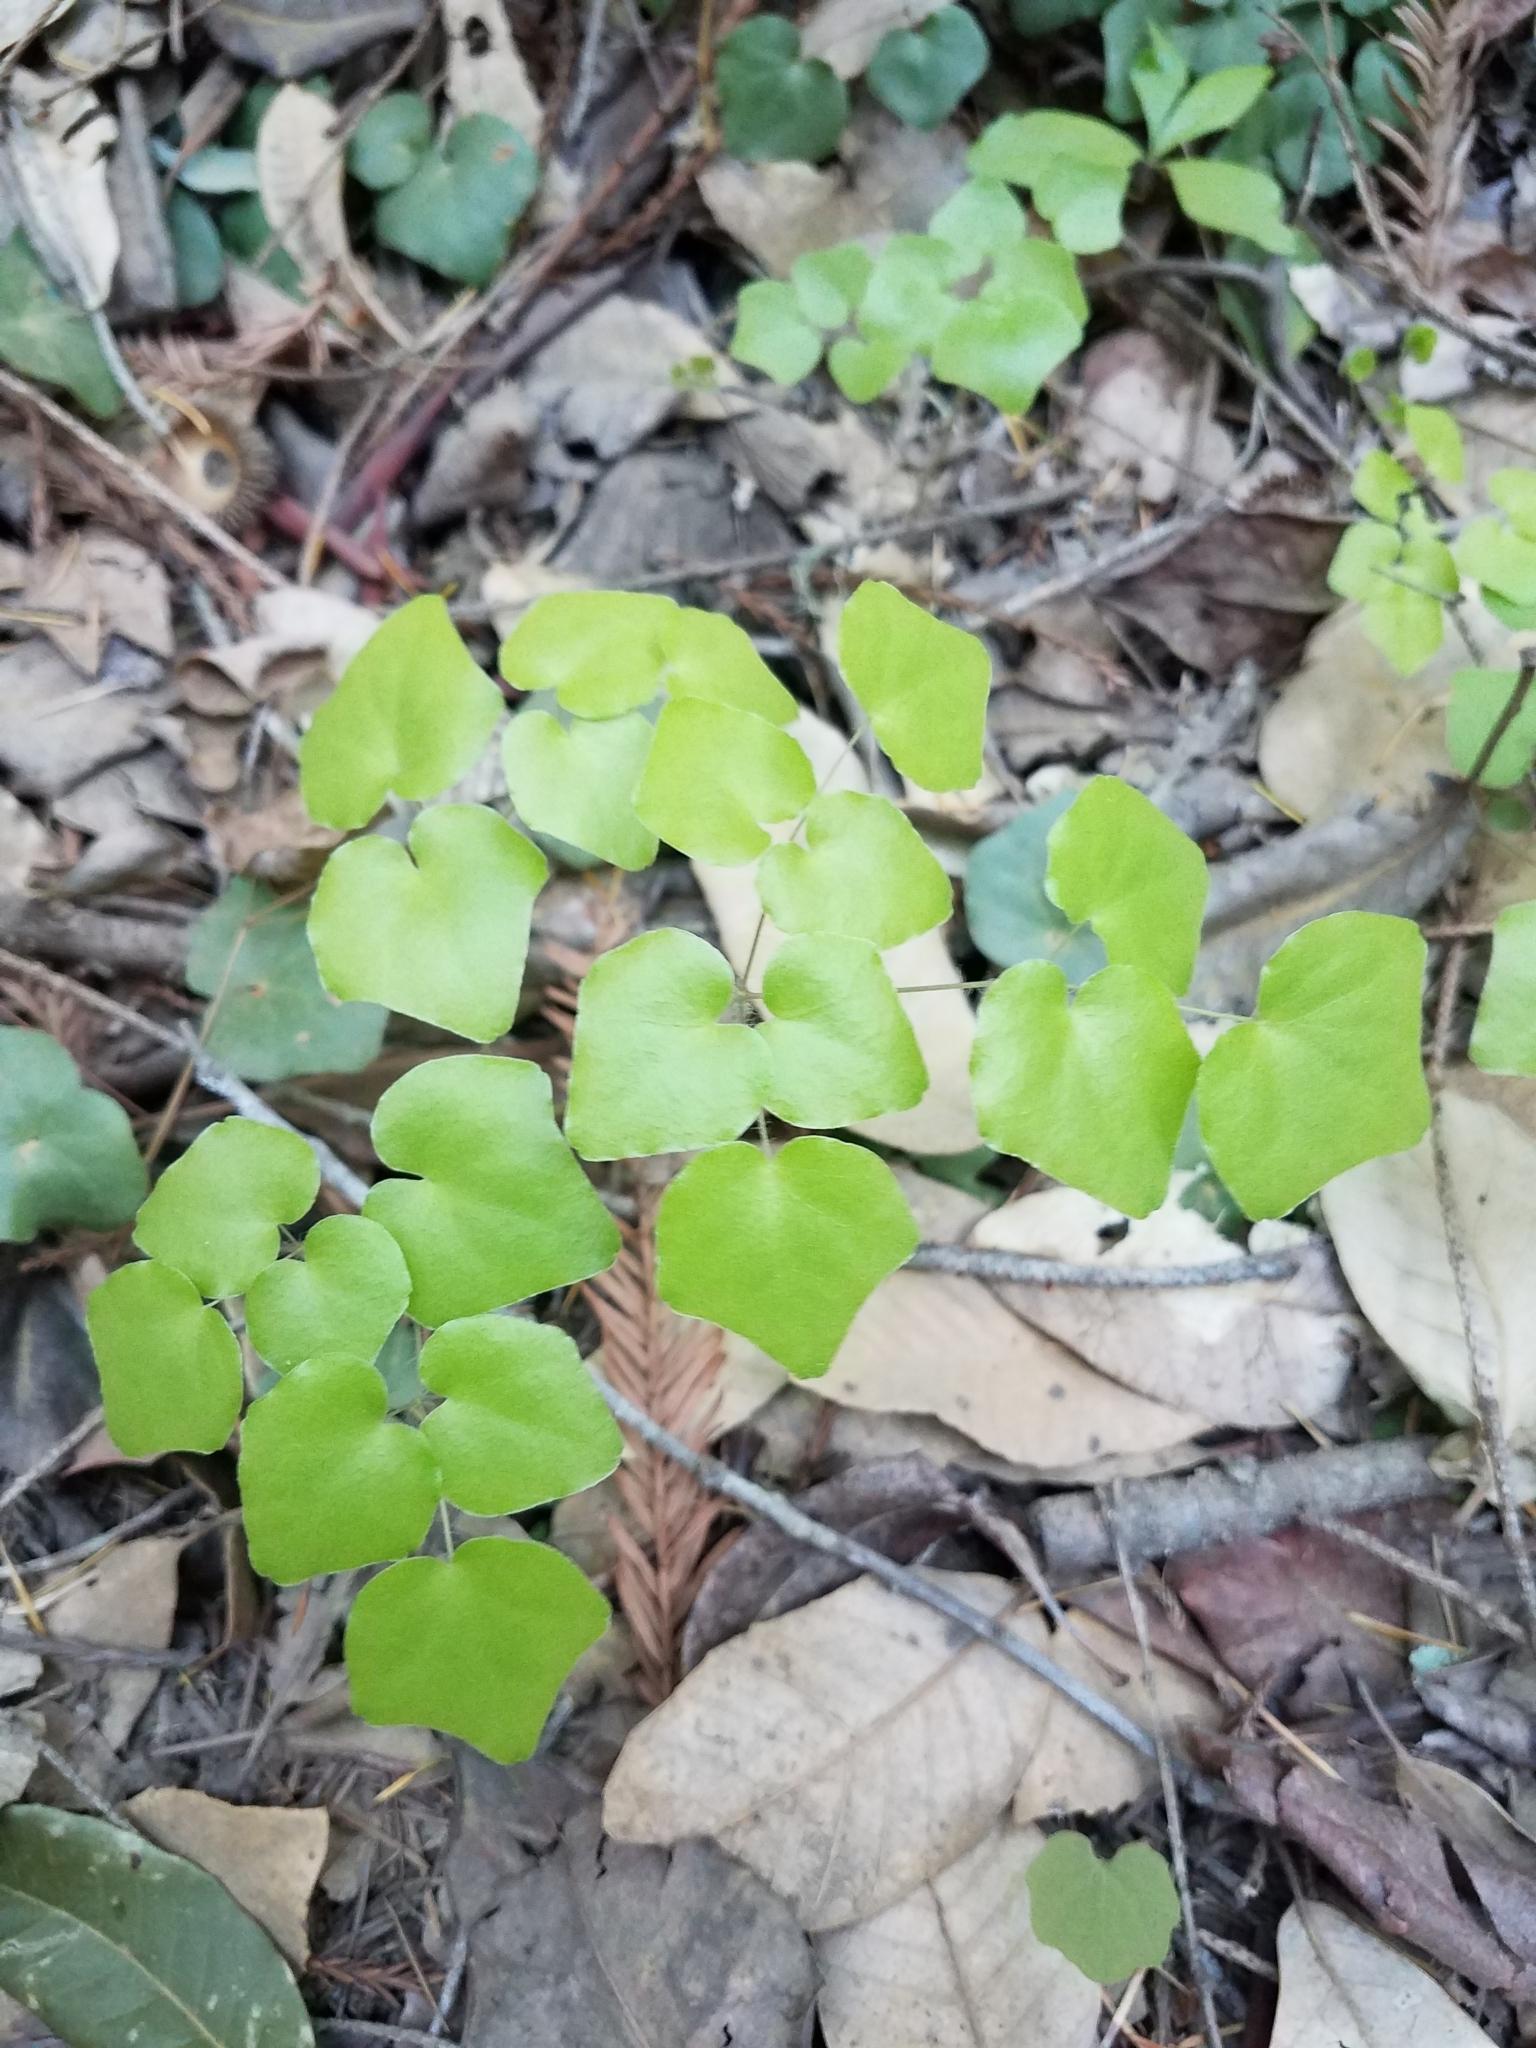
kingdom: Plantae
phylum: Tracheophyta
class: Magnoliopsida
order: Ranunculales
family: Berberidaceae
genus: Vancouveria
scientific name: Vancouveria planipetala
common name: Redwood-ivy
